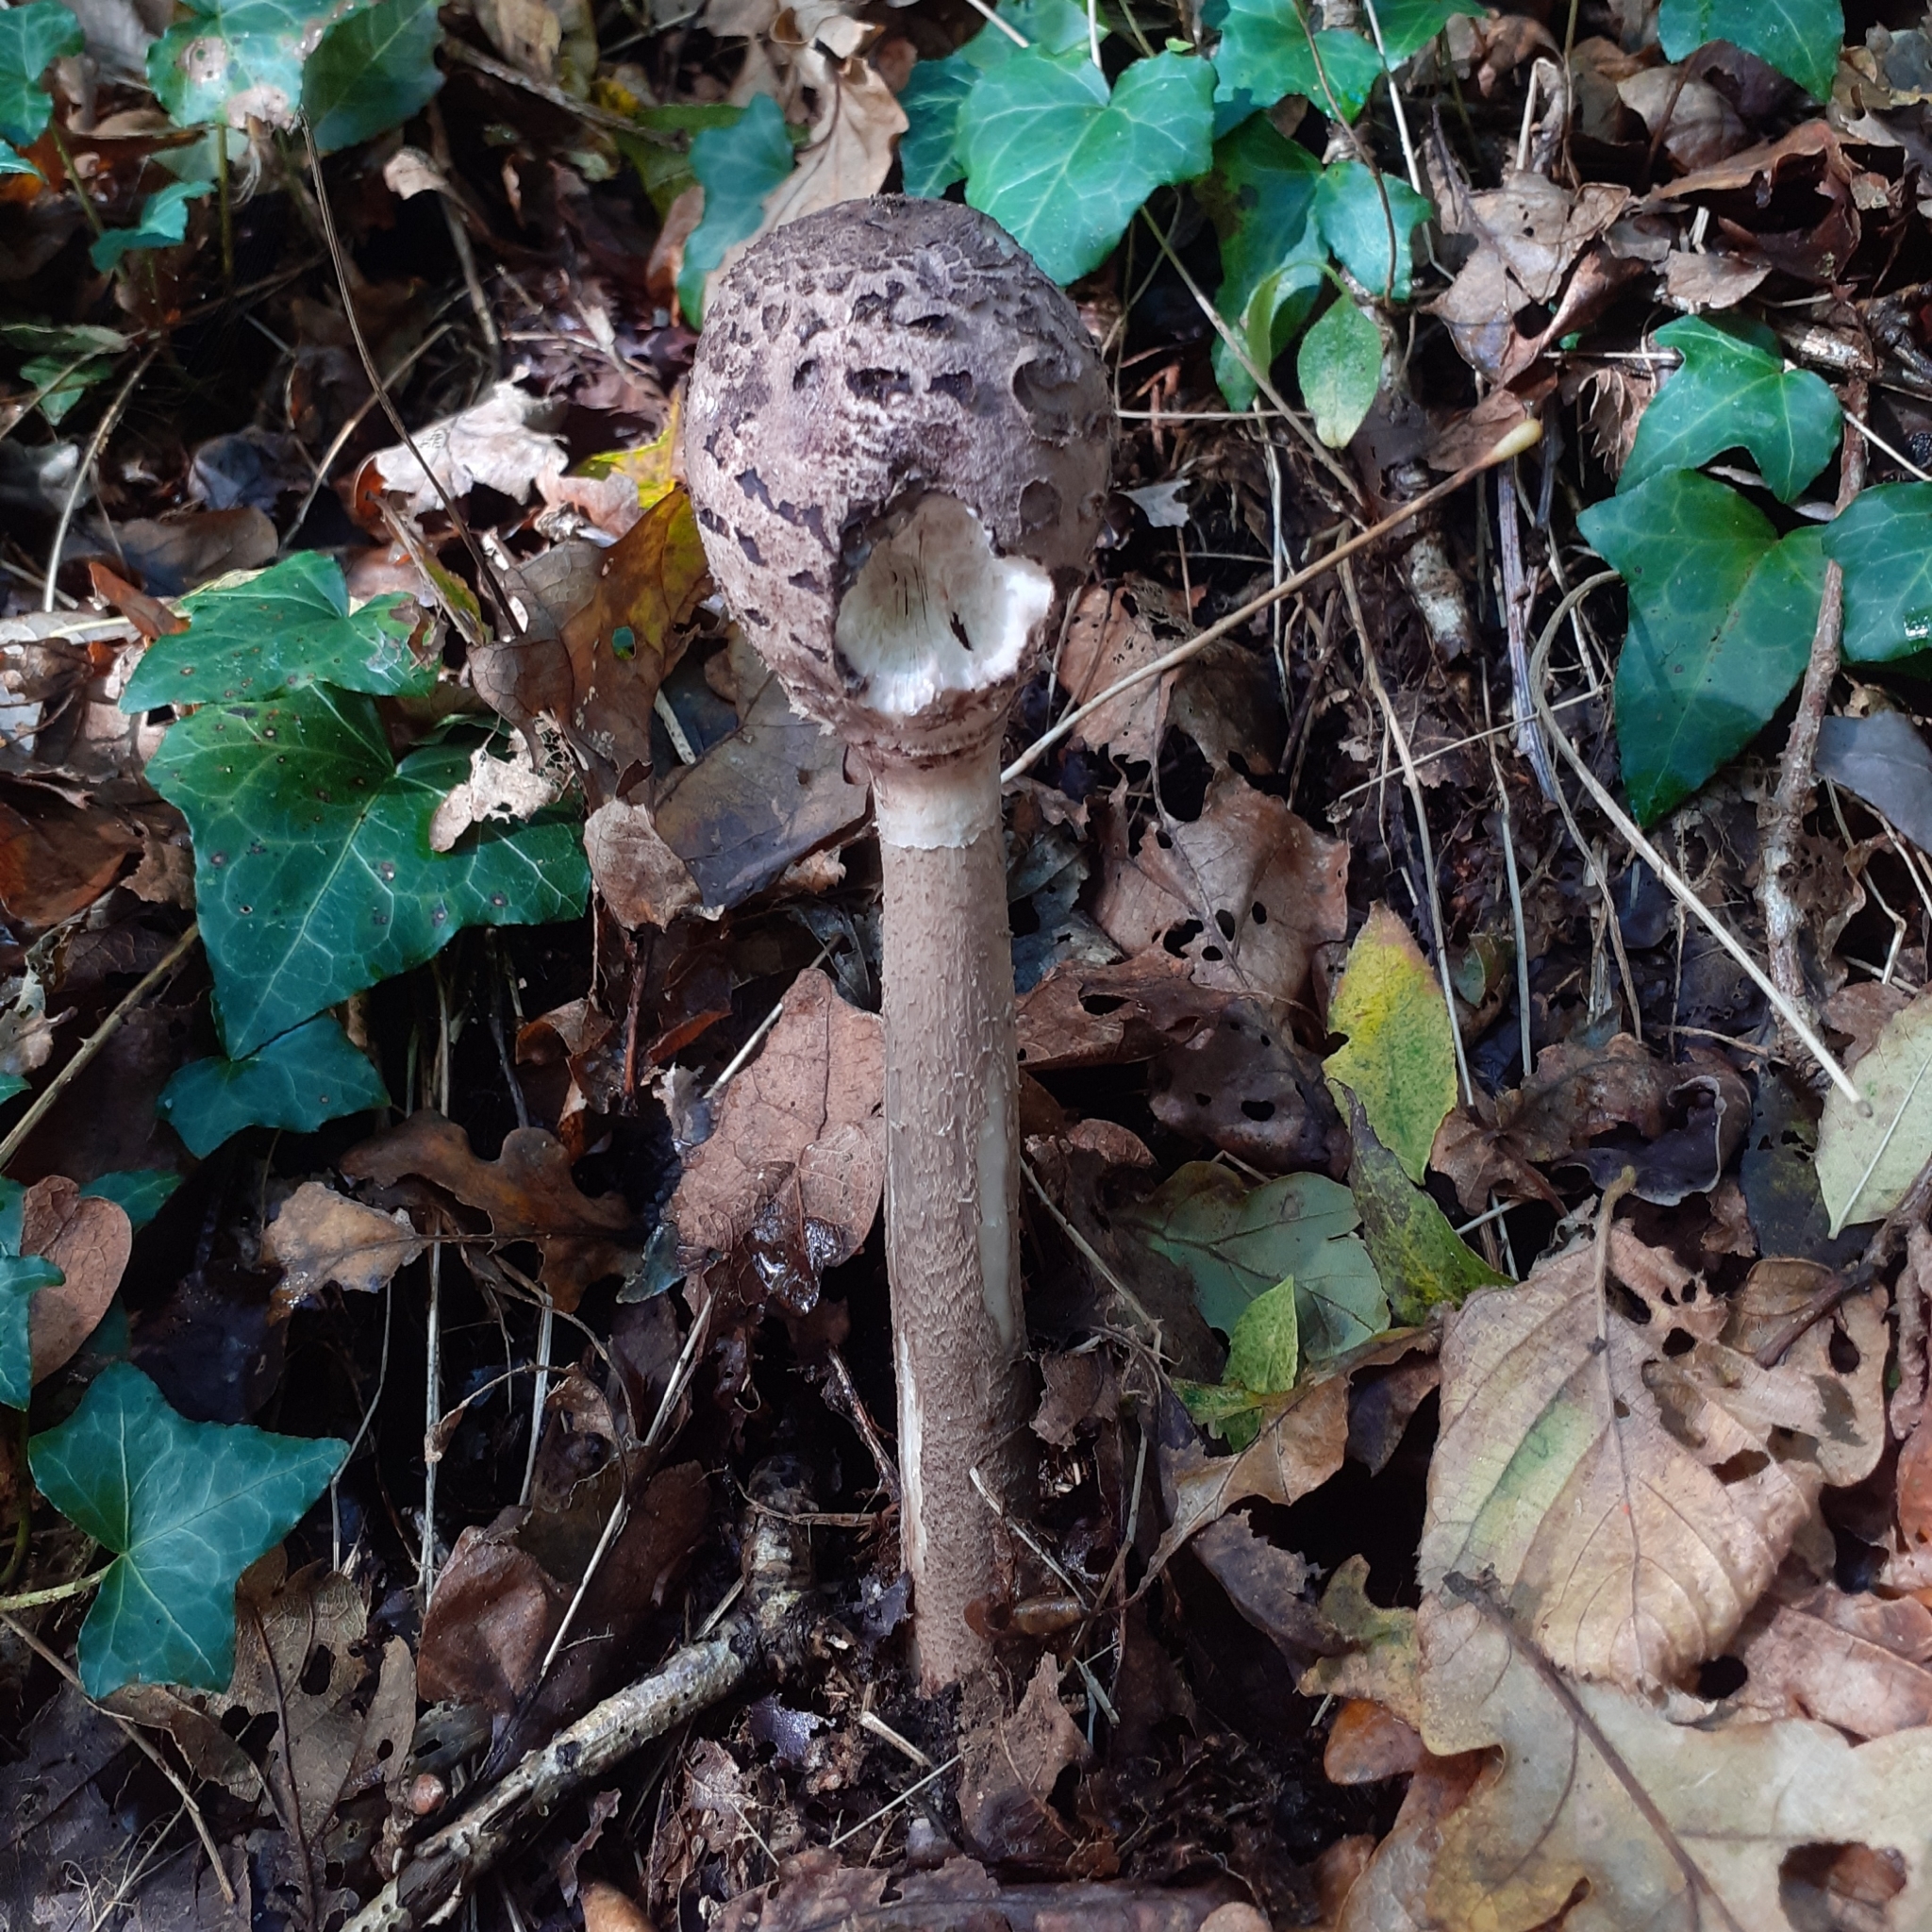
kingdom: Fungi
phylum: Basidiomycota
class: Agaricomycetes
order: Agaricales
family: Agaricaceae
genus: Macrolepiota
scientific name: Macrolepiota procera
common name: Parasol
